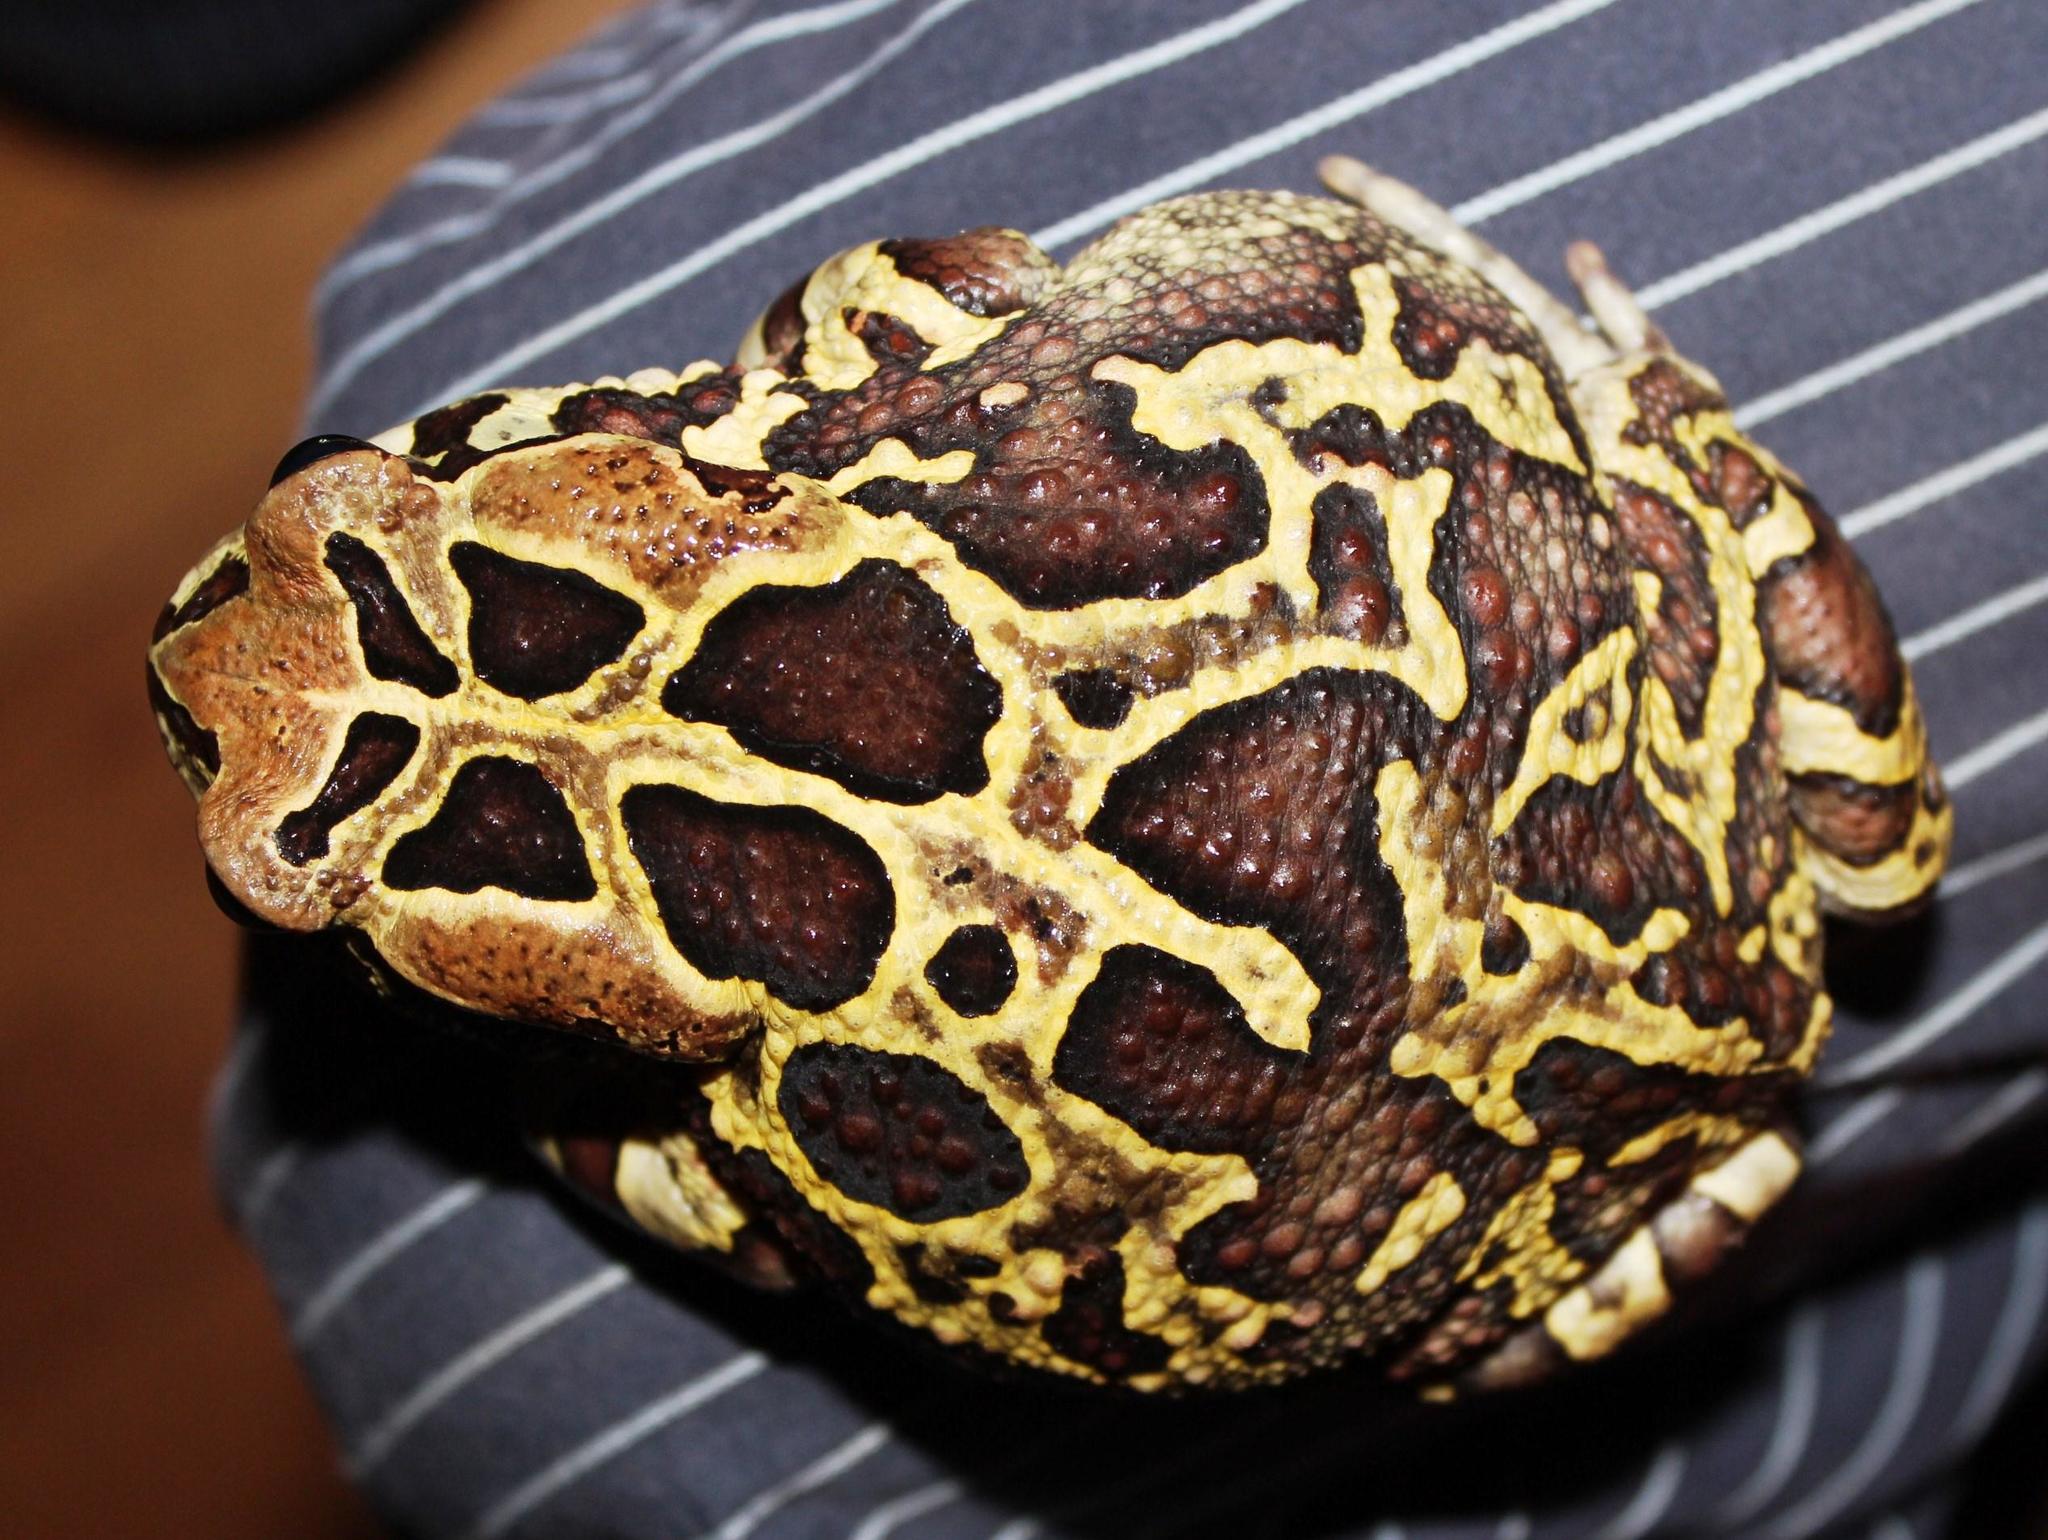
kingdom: Animalia
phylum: Chordata
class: Amphibia
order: Anura
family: Bufonidae
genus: Sclerophrys
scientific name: Sclerophrys pantherina
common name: Panther toad
